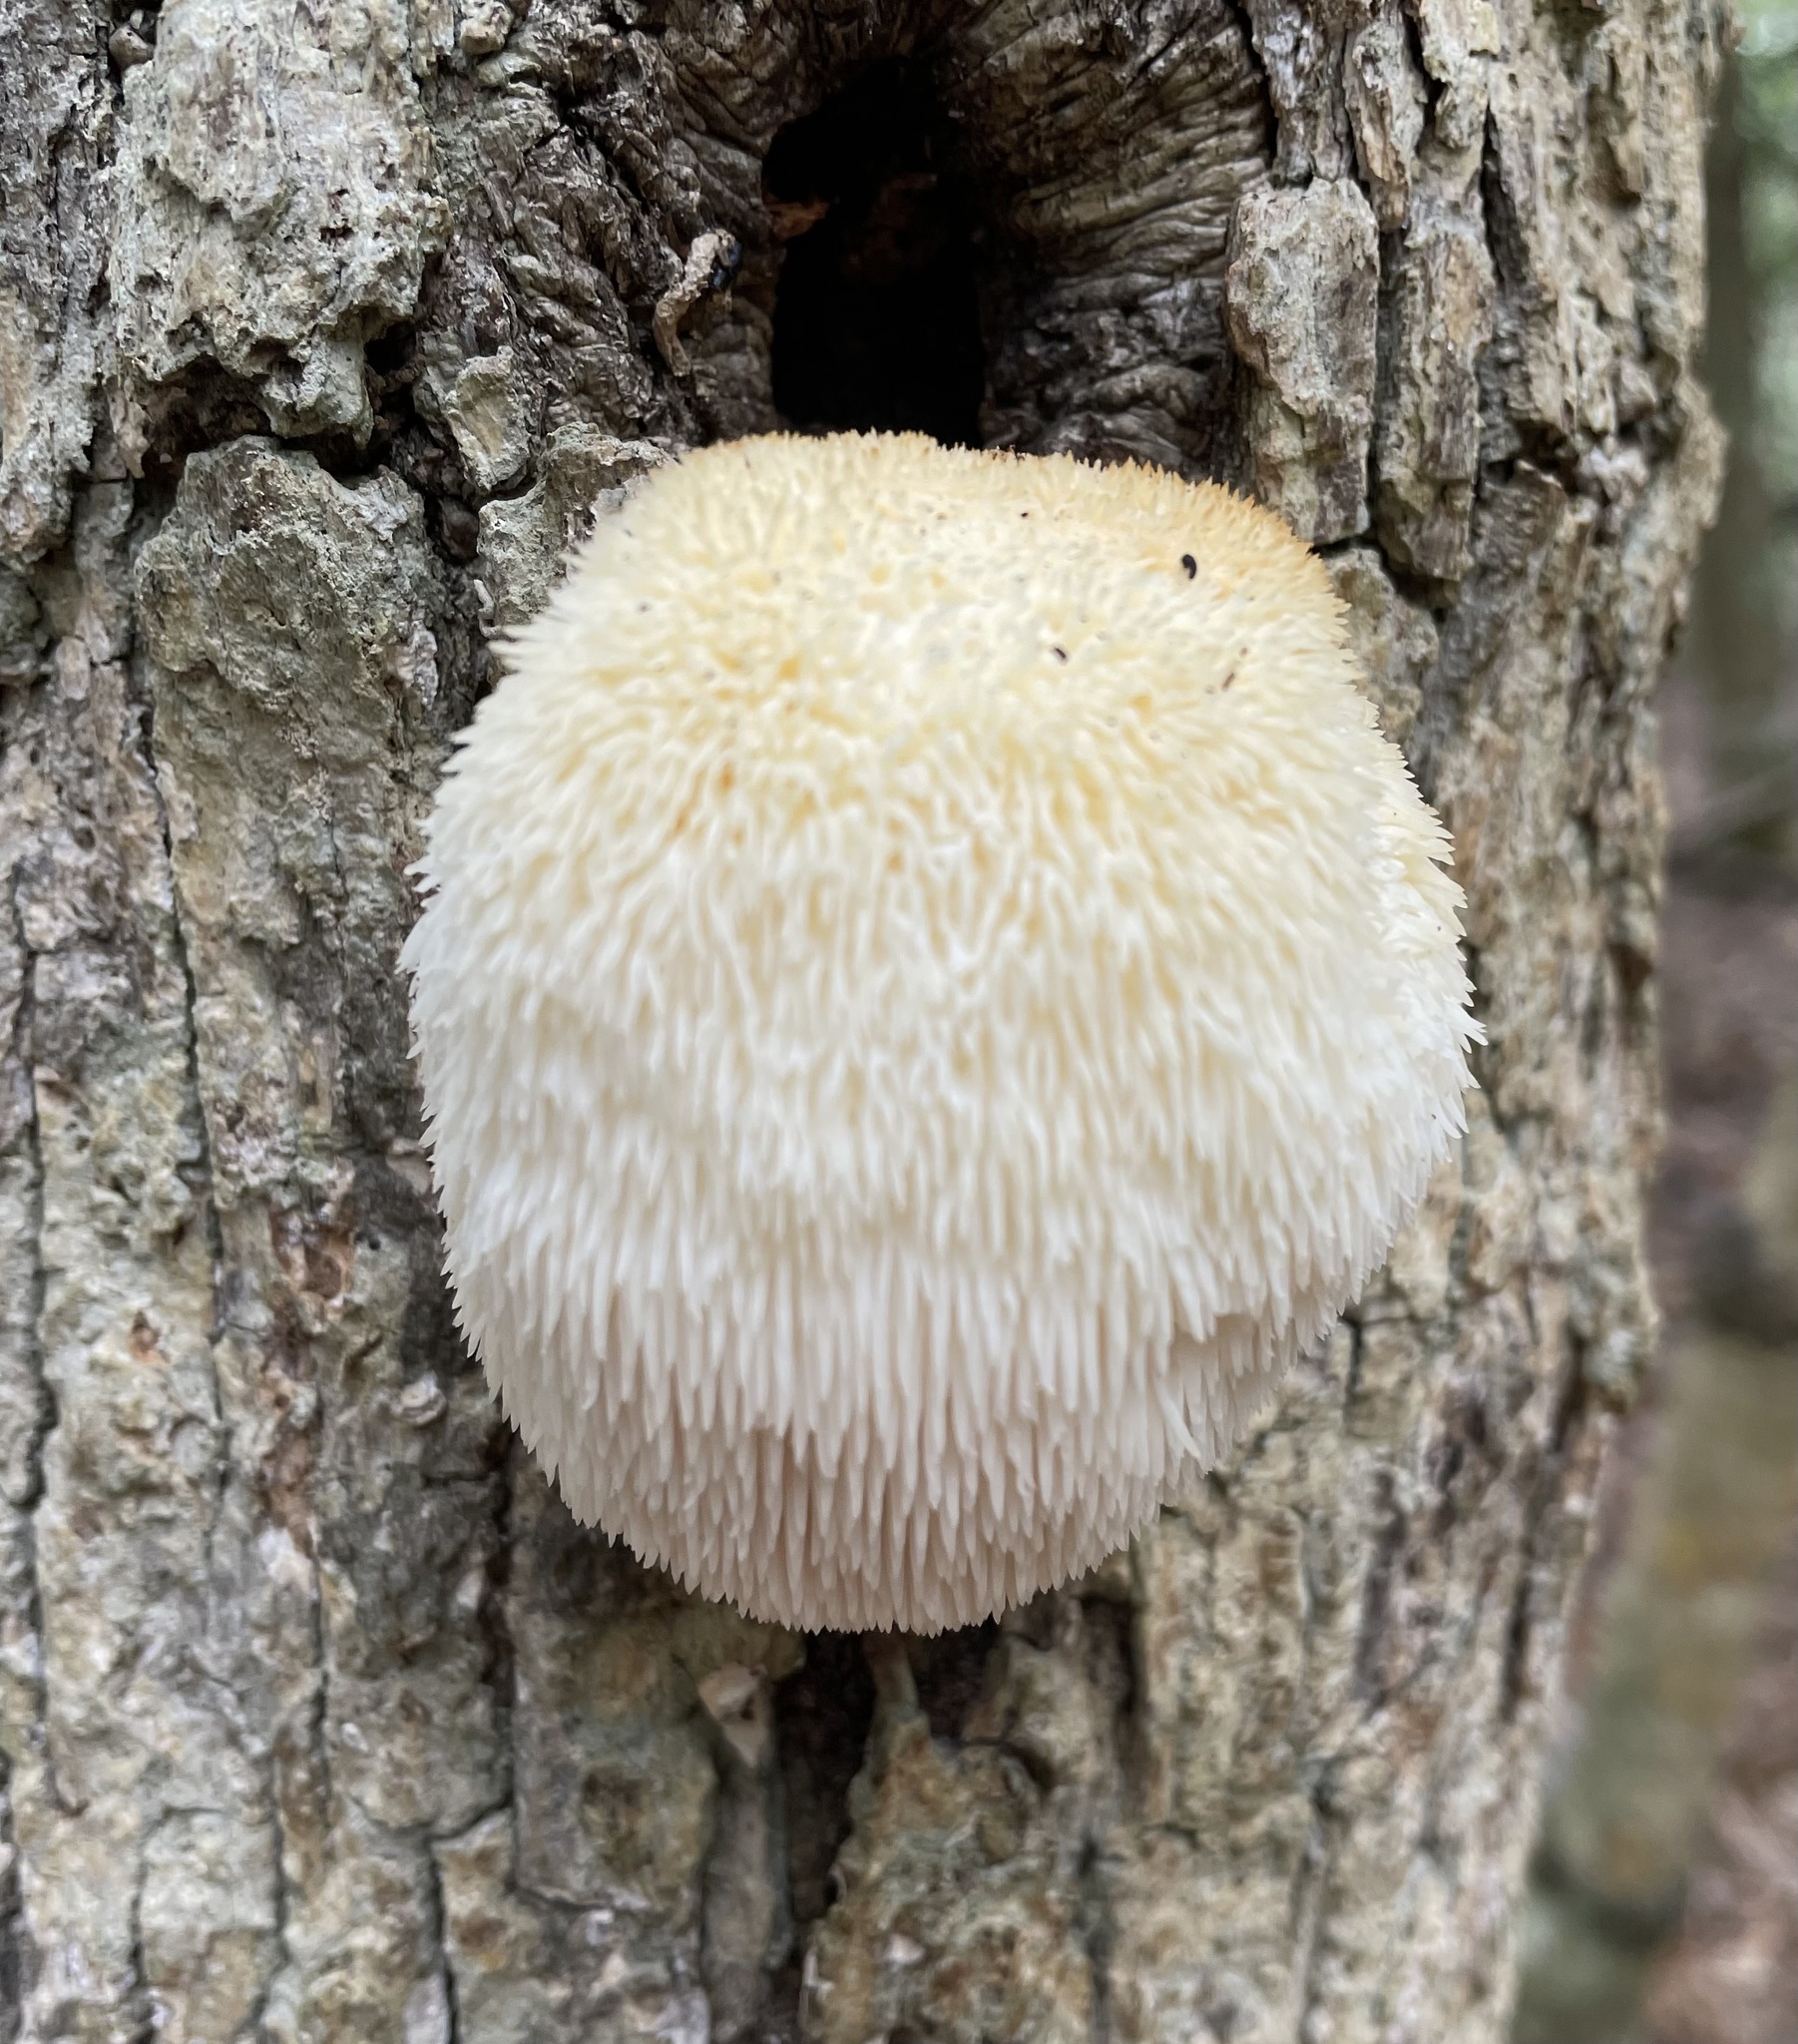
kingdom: Fungi
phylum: Basidiomycota
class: Agaricomycetes
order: Russulales
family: Hericiaceae
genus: Hericium
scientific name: Hericium erinaceus
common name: Bearded tooth
